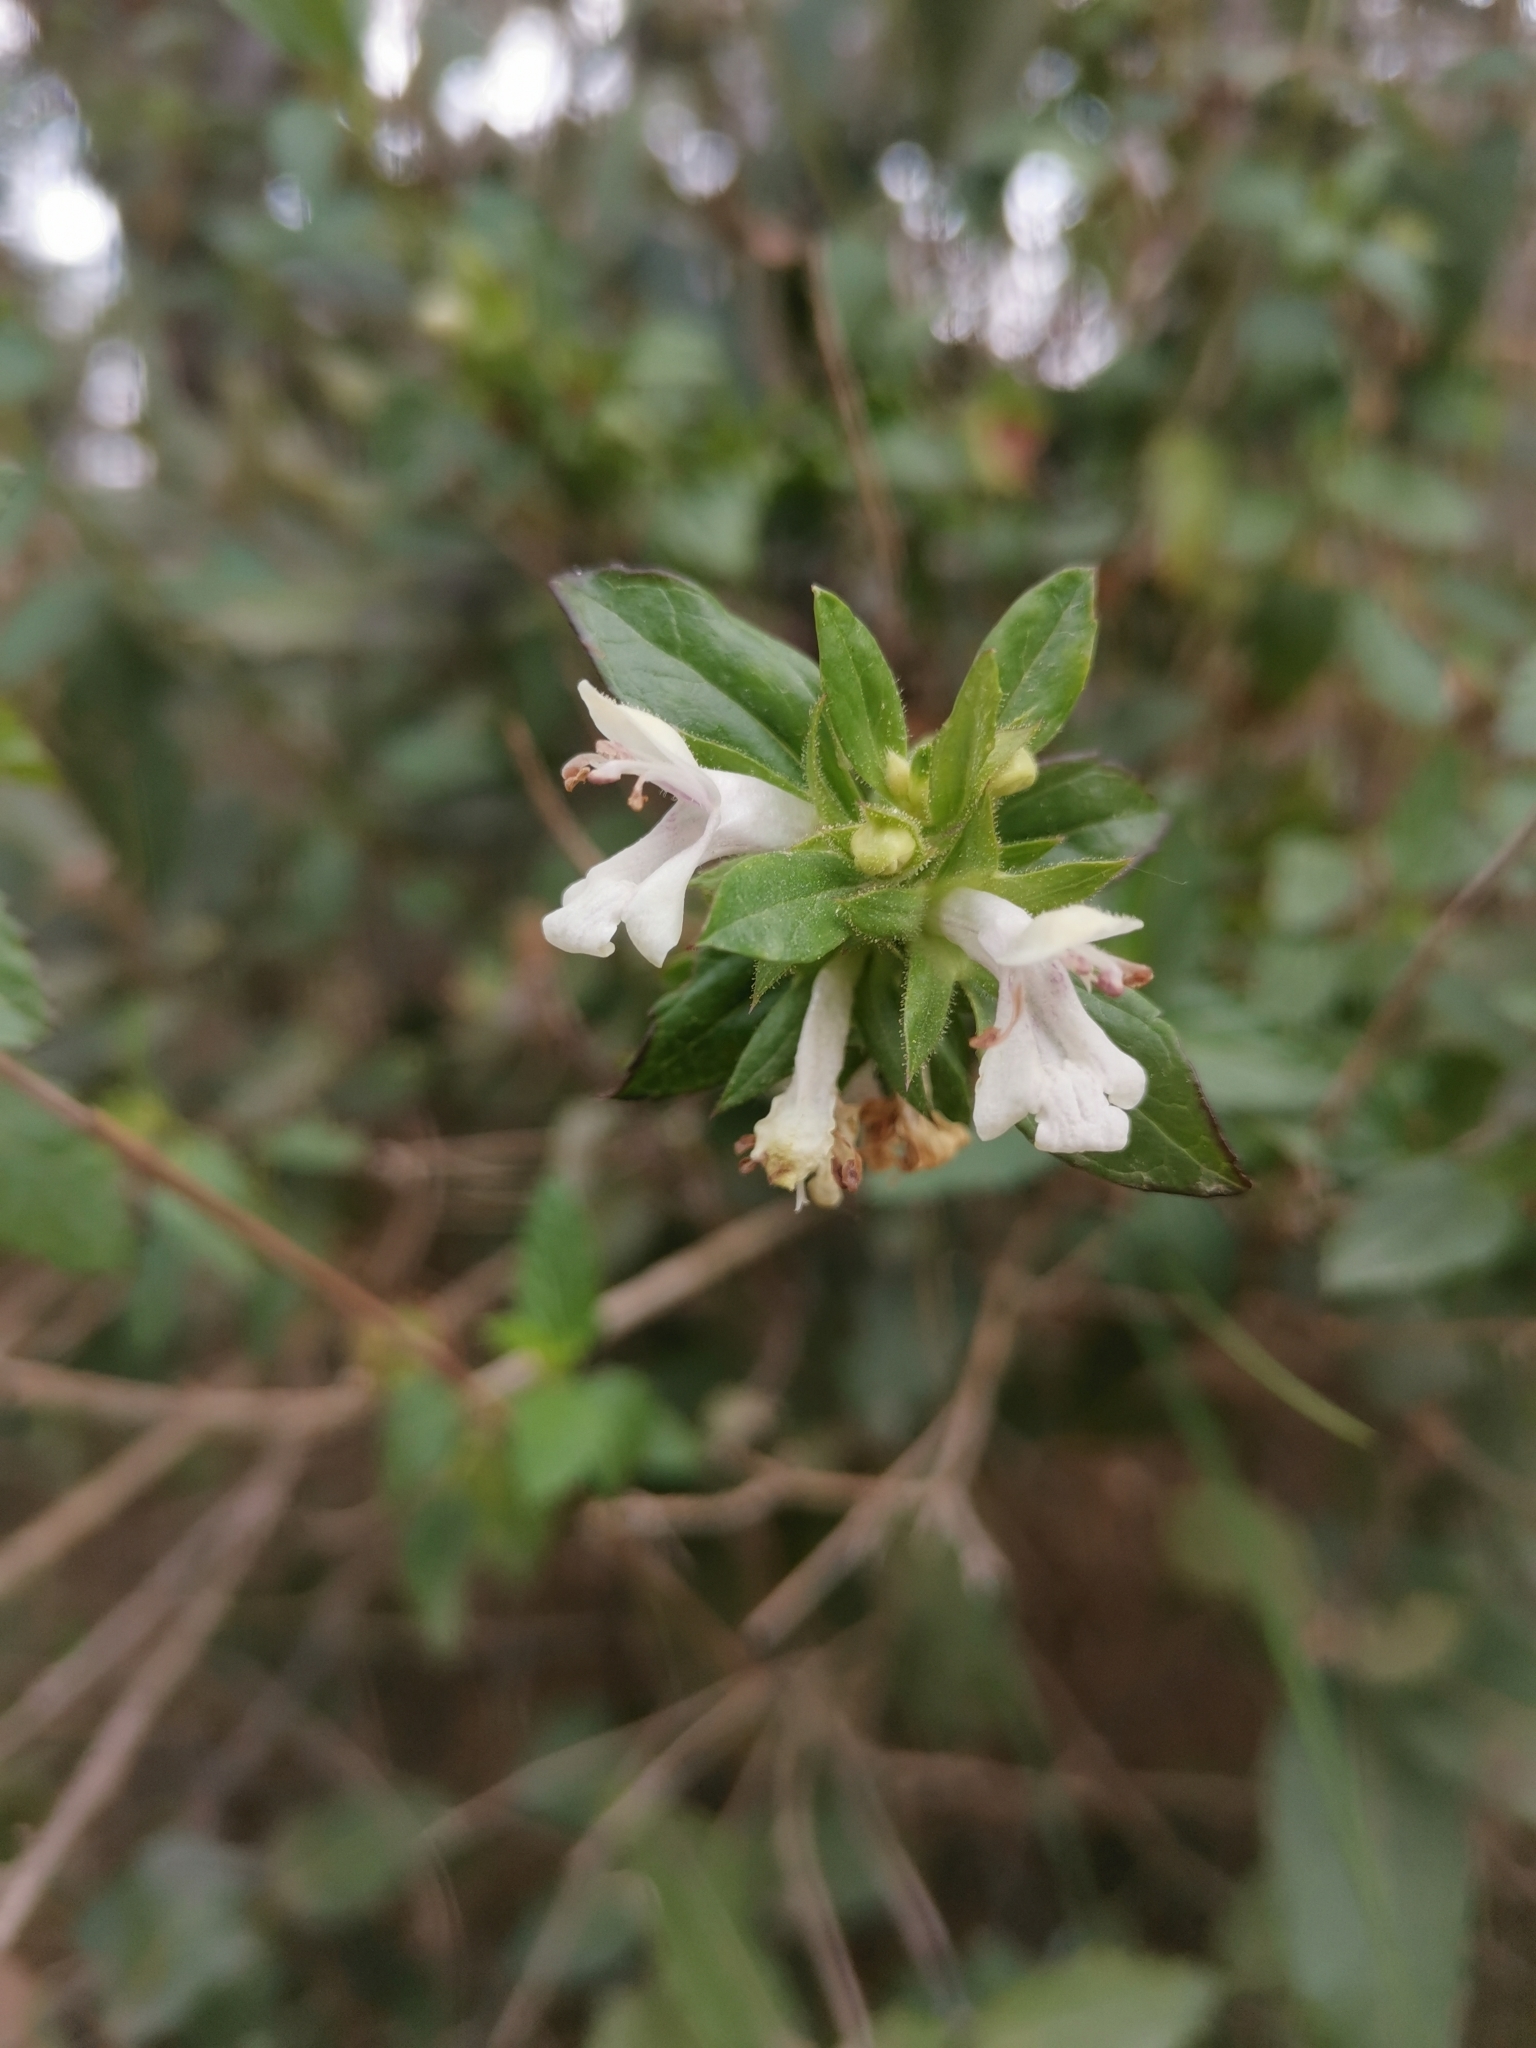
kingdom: Plantae
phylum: Tracheophyta
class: Magnoliopsida
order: Lamiales
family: Lamiaceae
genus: Prasium
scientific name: Prasium majus
